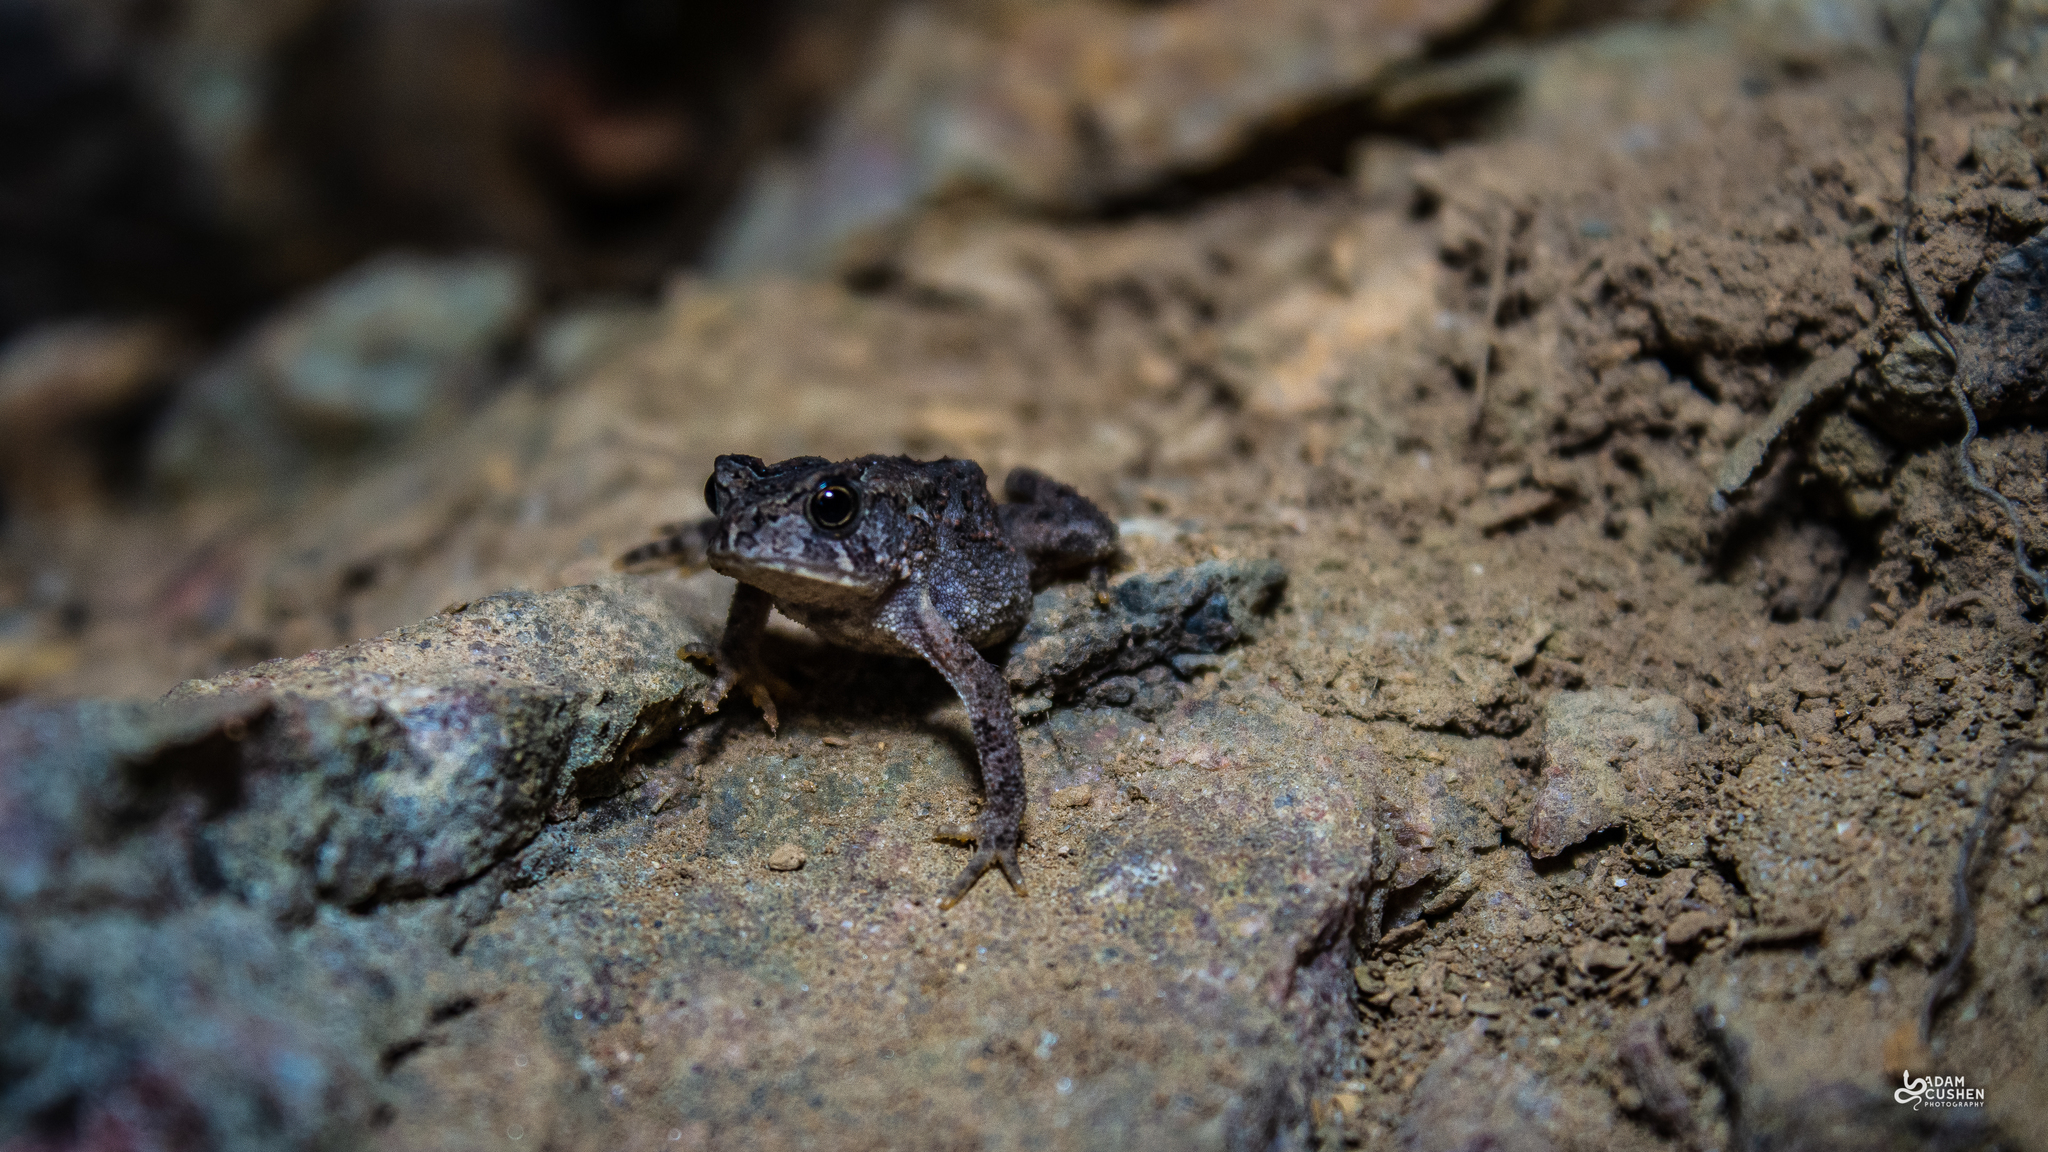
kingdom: Animalia
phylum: Chordata
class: Amphibia
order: Anura
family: Bufonidae
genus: Anaxyrus
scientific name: Anaxyrus americanus
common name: American toad
